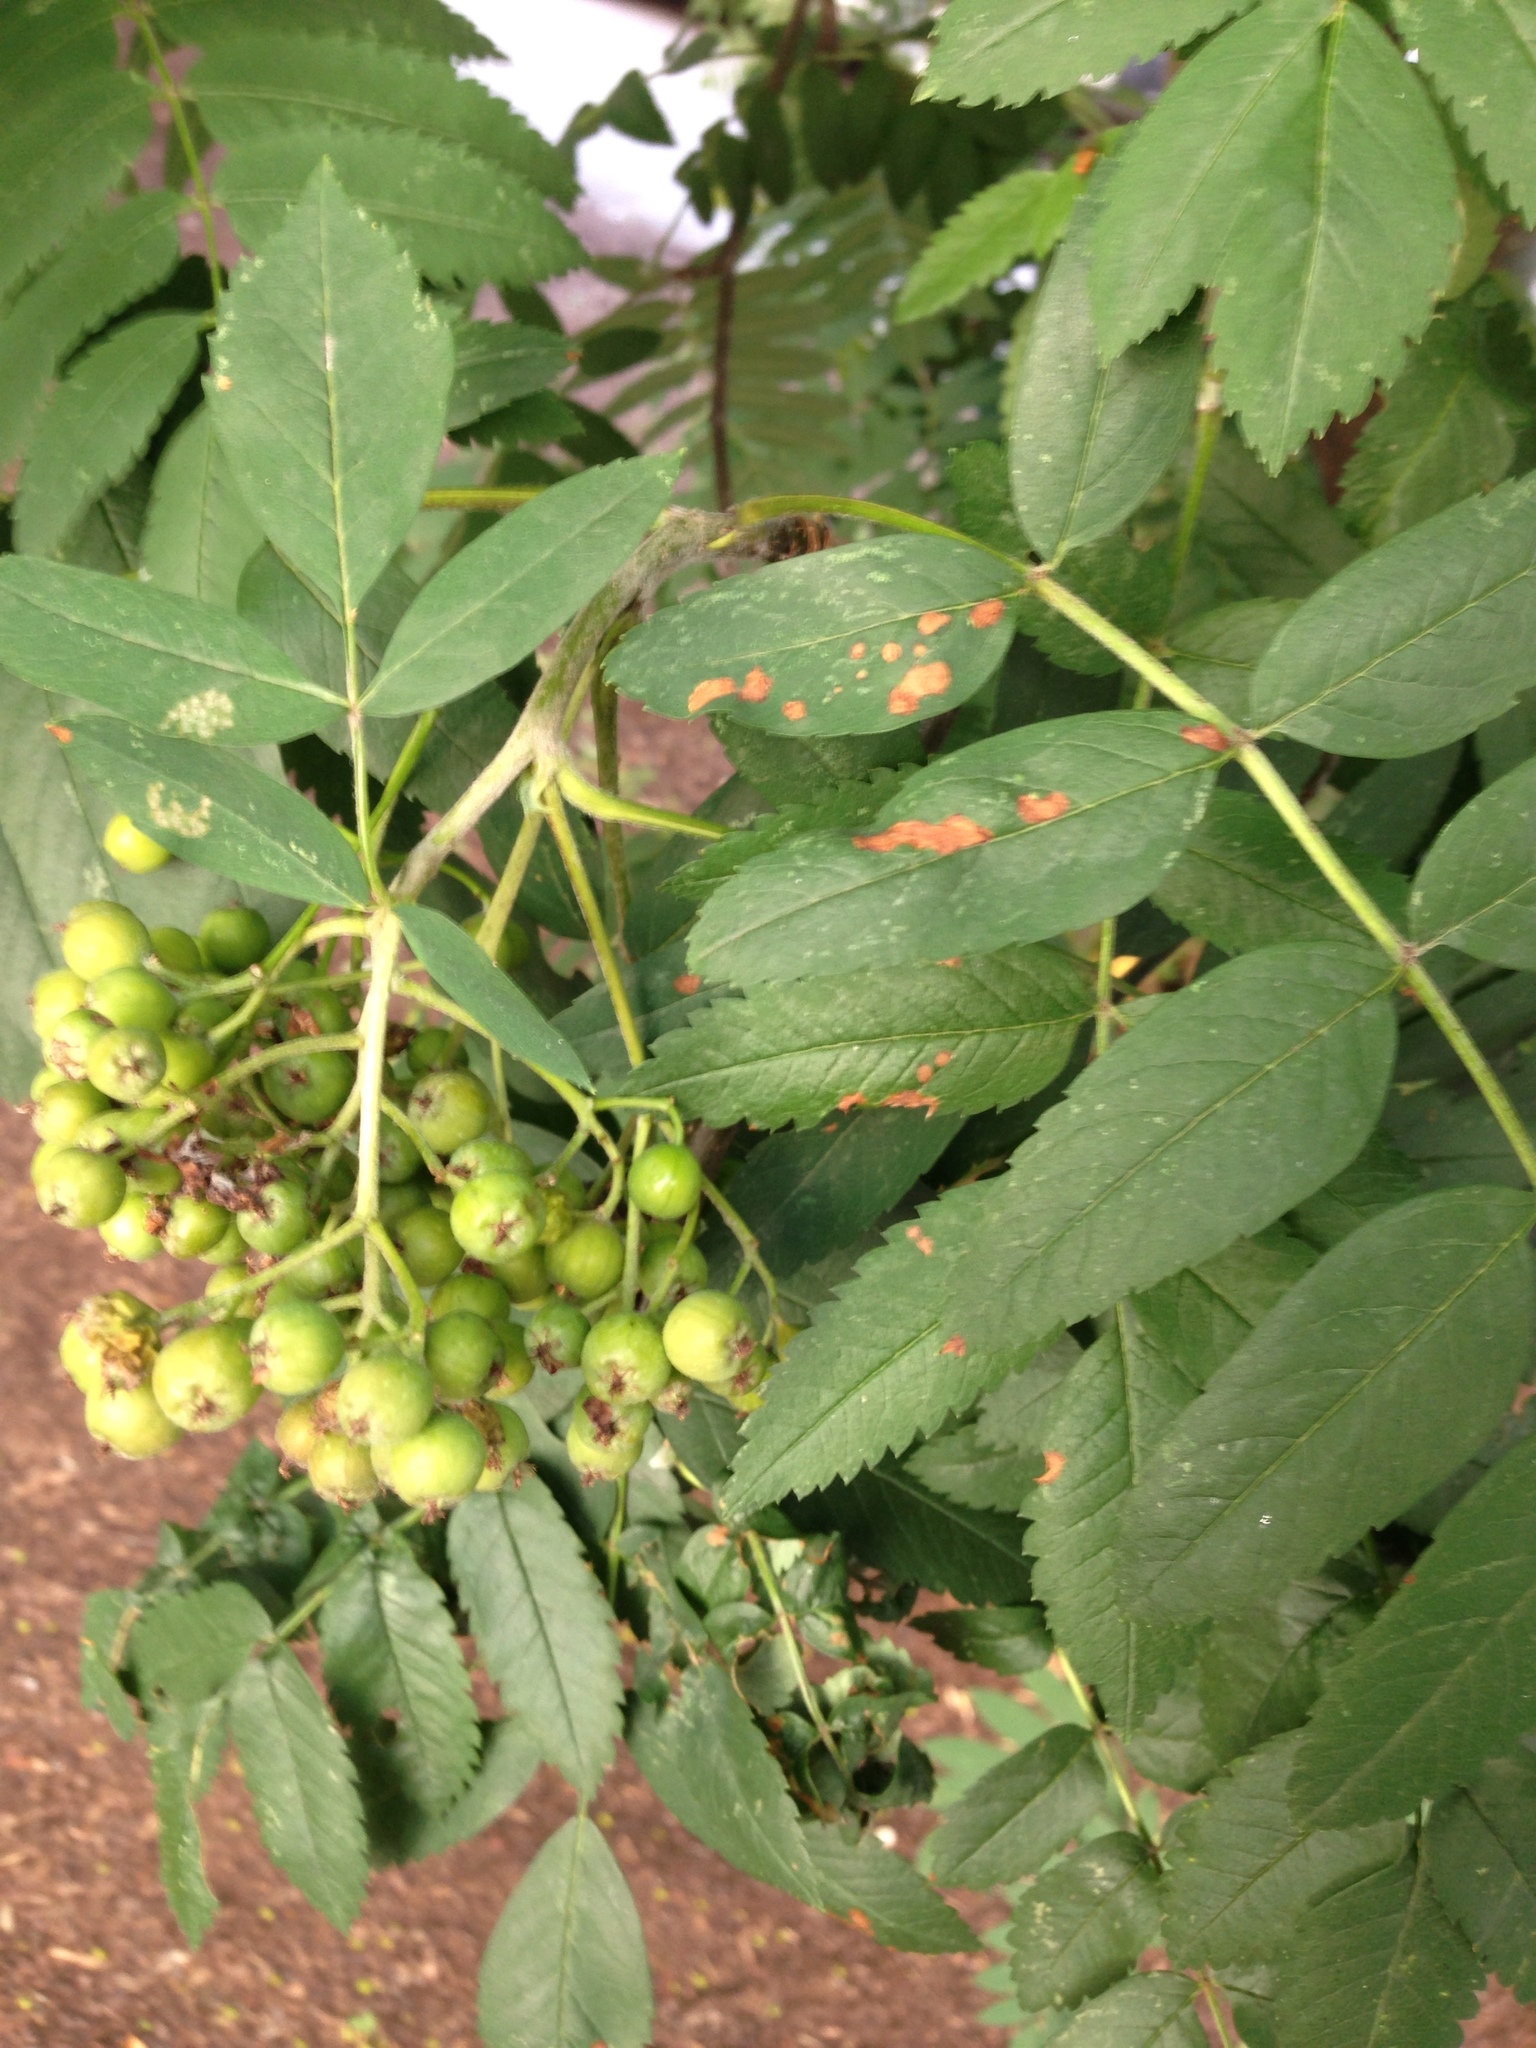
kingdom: Plantae
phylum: Tracheophyta
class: Magnoliopsida
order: Rosales
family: Rosaceae
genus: Sorbus
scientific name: Sorbus aucuparia
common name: Rowan
